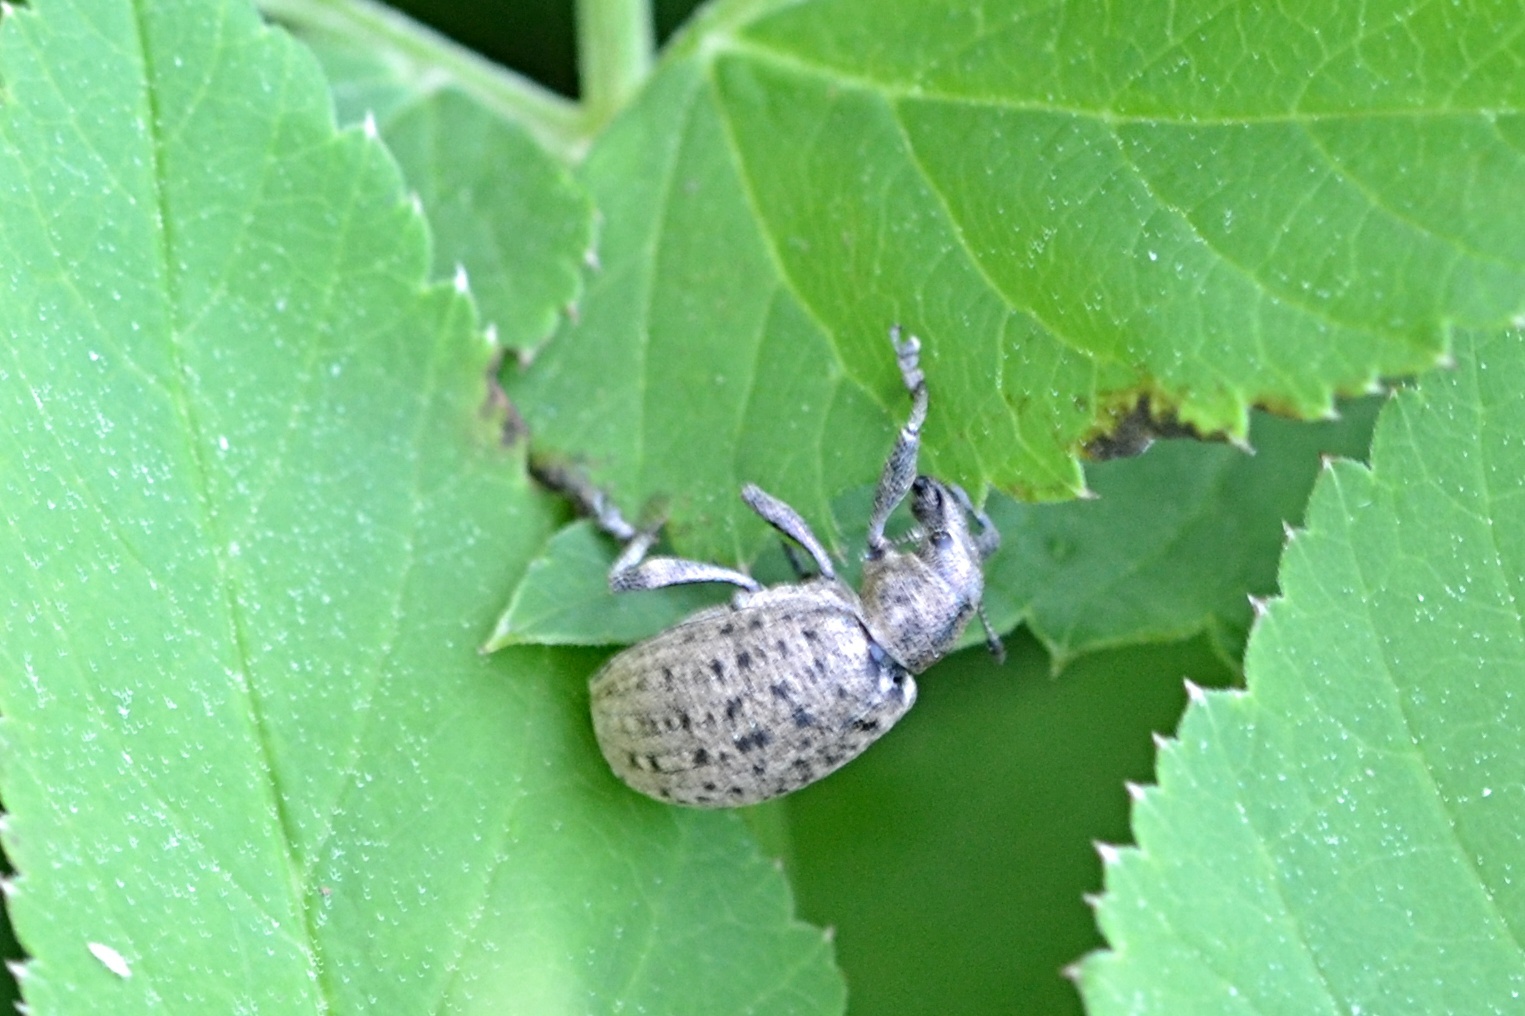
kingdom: Animalia
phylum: Arthropoda
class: Insecta
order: Coleoptera
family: Curculionidae
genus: Liophloeus
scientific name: Liophloeus tessulatus
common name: Weevil
